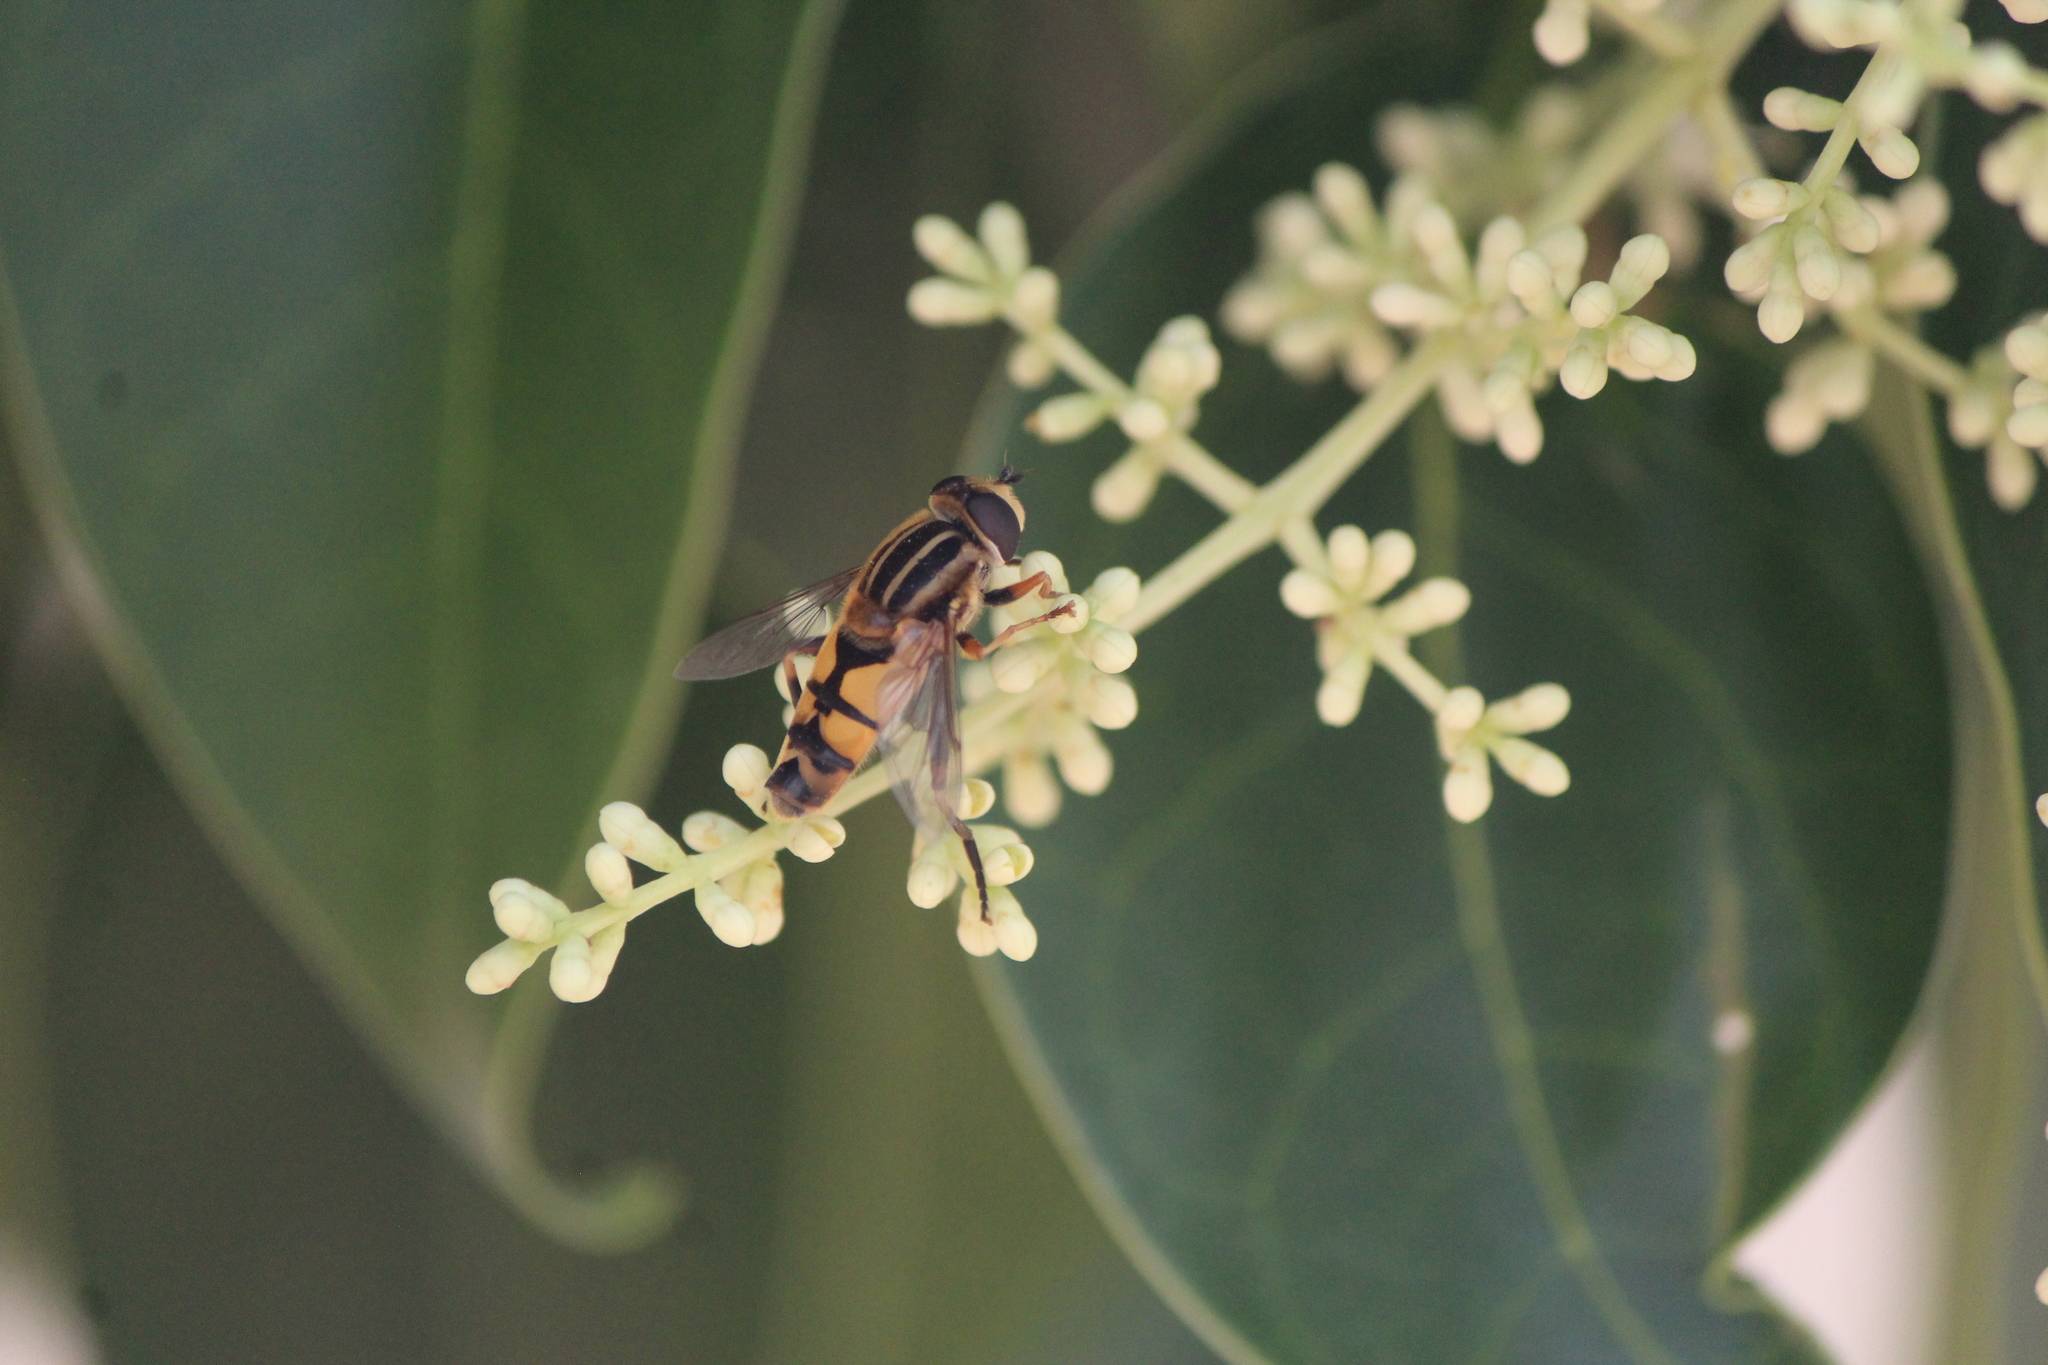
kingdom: Animalia
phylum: Arthropoda
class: Insecta
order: Diptera
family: Syrphidae
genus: Helophilus
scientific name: Helophilus latifrons
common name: Broad-headed marsh fly
